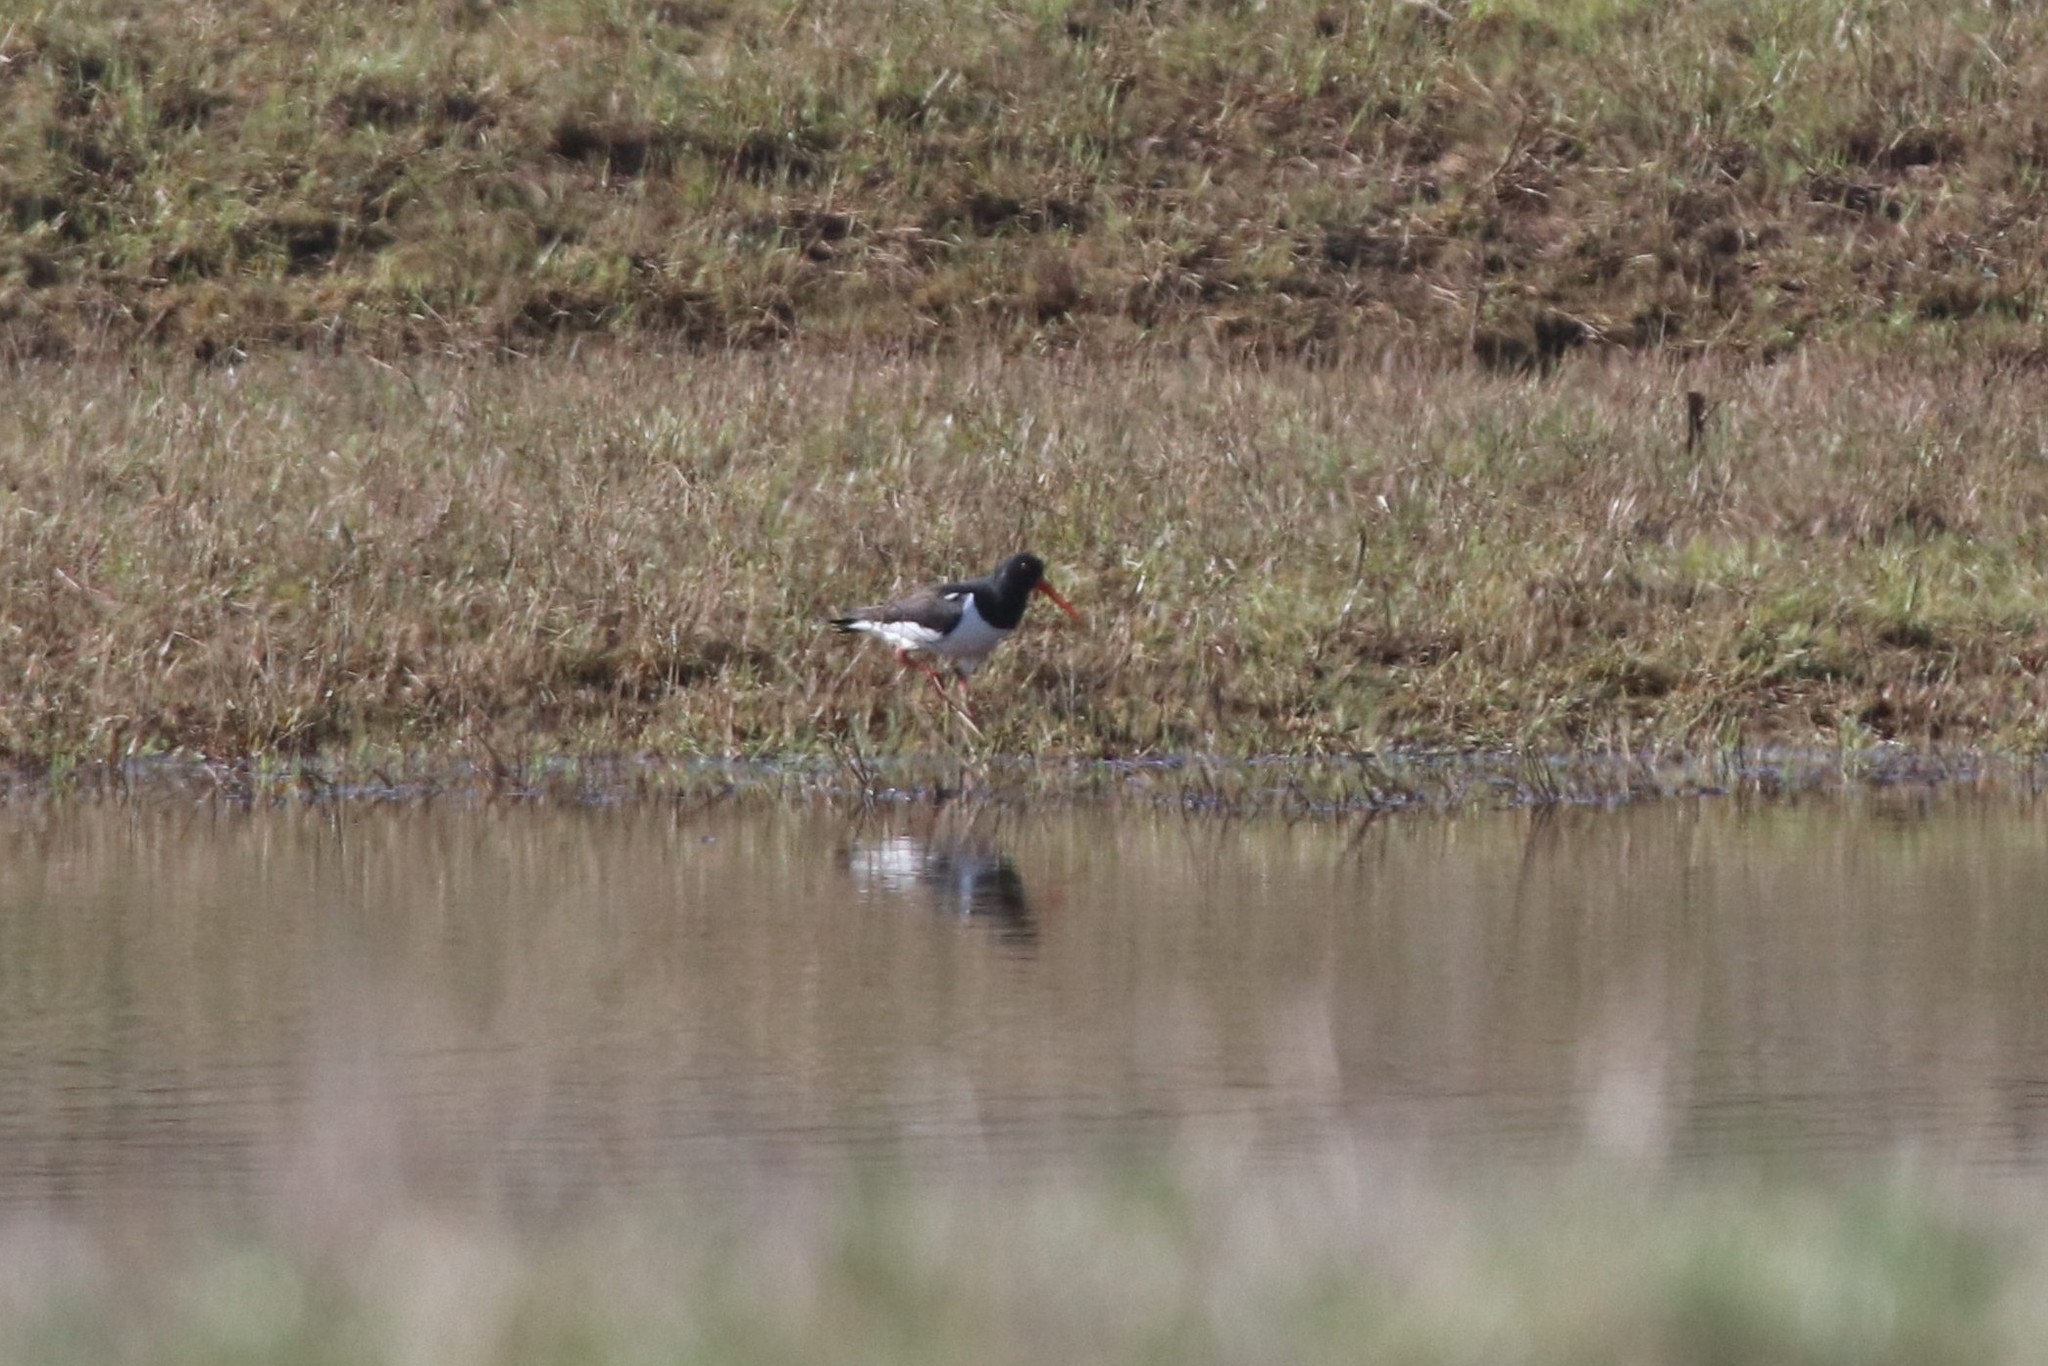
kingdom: Animalia
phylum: Chordata
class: Aves
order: Charadriiformes
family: Haematopodidae
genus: Haematopus
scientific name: Haematopus ostralegus
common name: Eurasian oystercatcher
